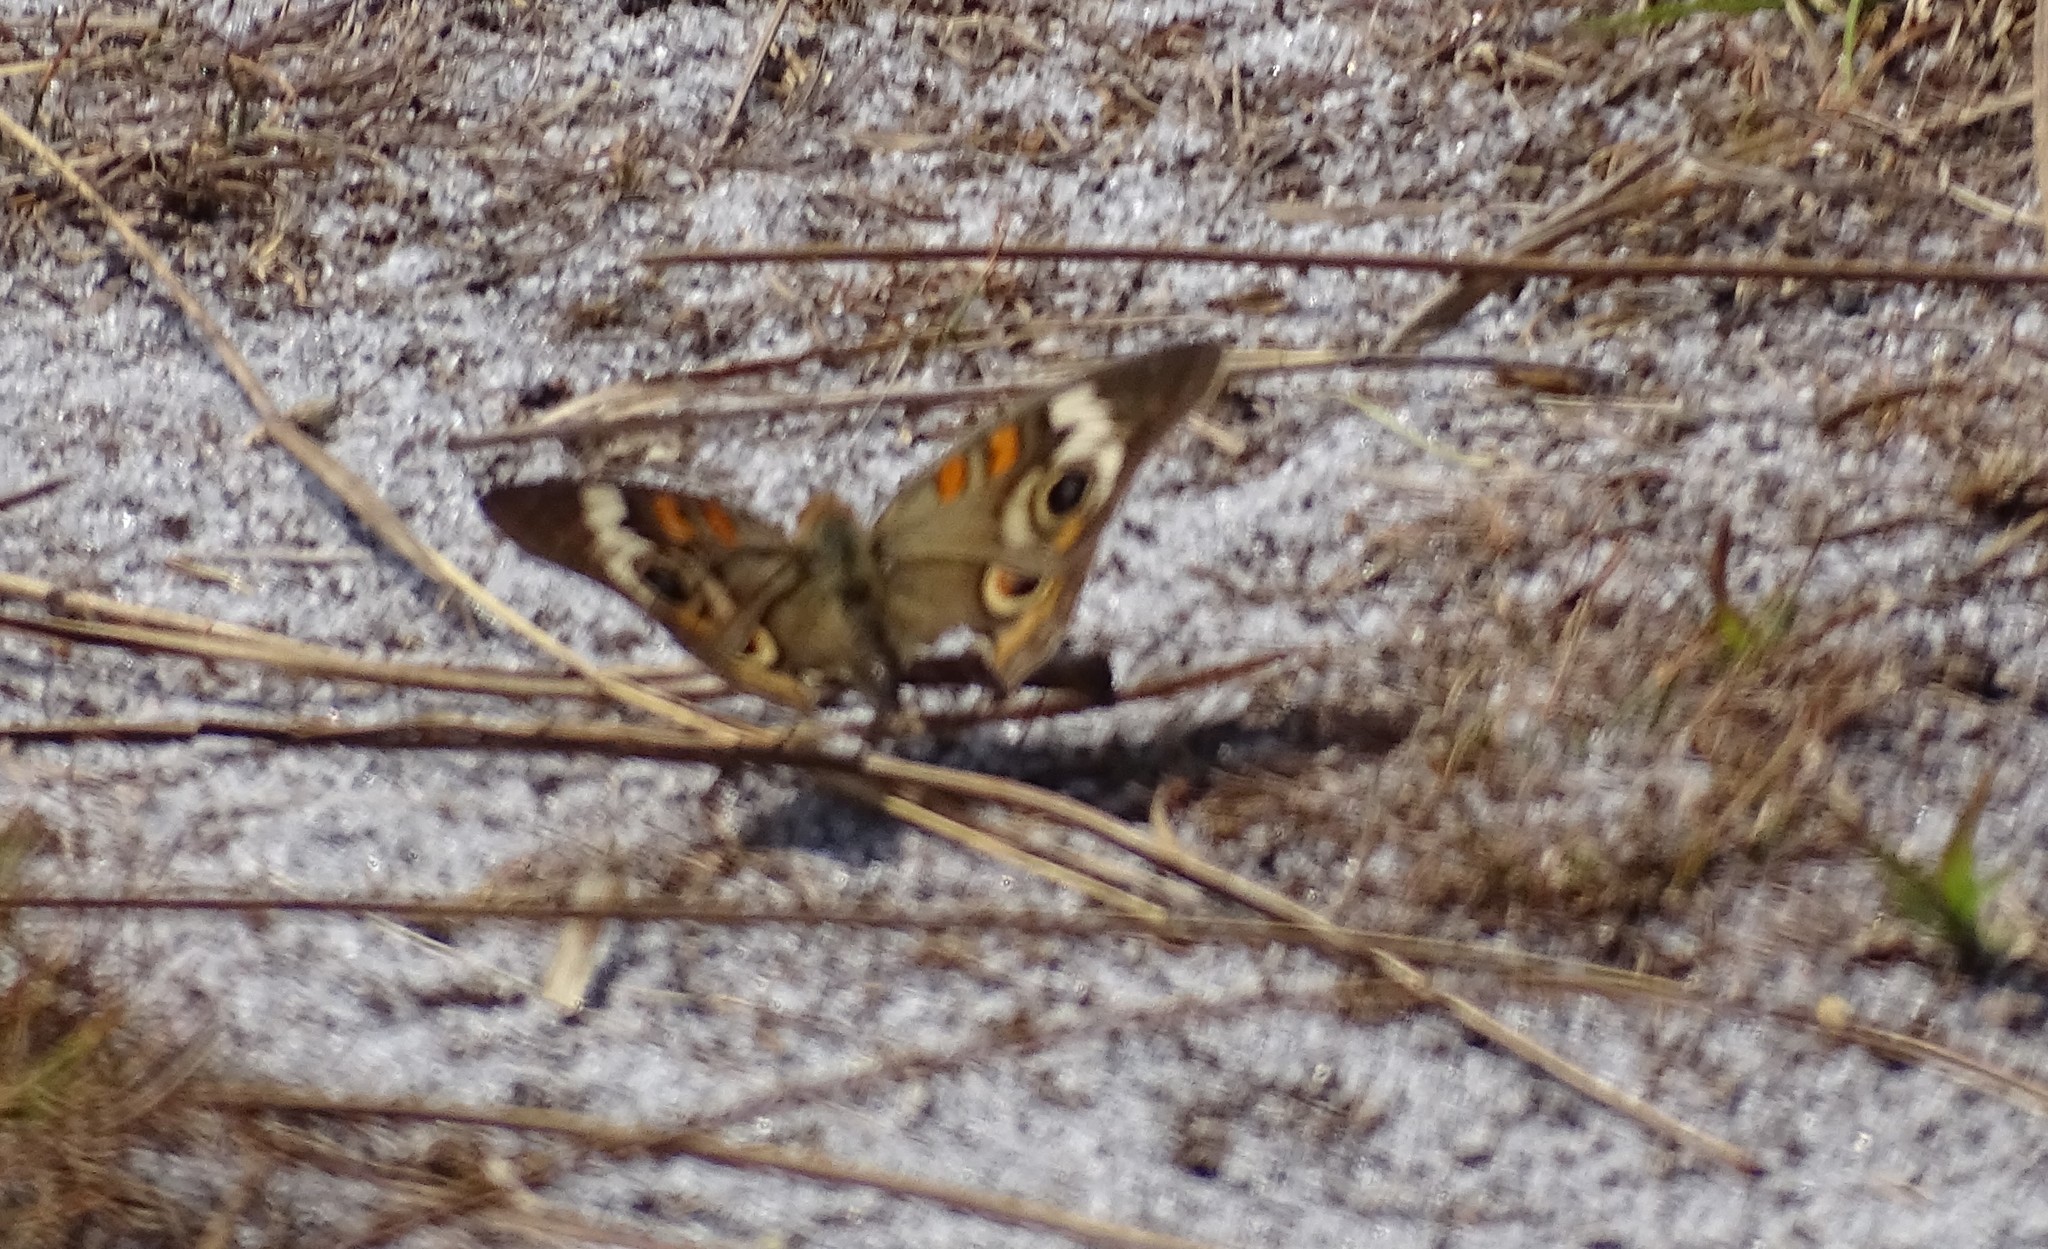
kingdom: Animalia
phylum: Arthropoda
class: Insecta
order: Lepidoptera
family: Nymphalidae
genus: Junonia
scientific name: Junonia coenia
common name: Common buckeye
